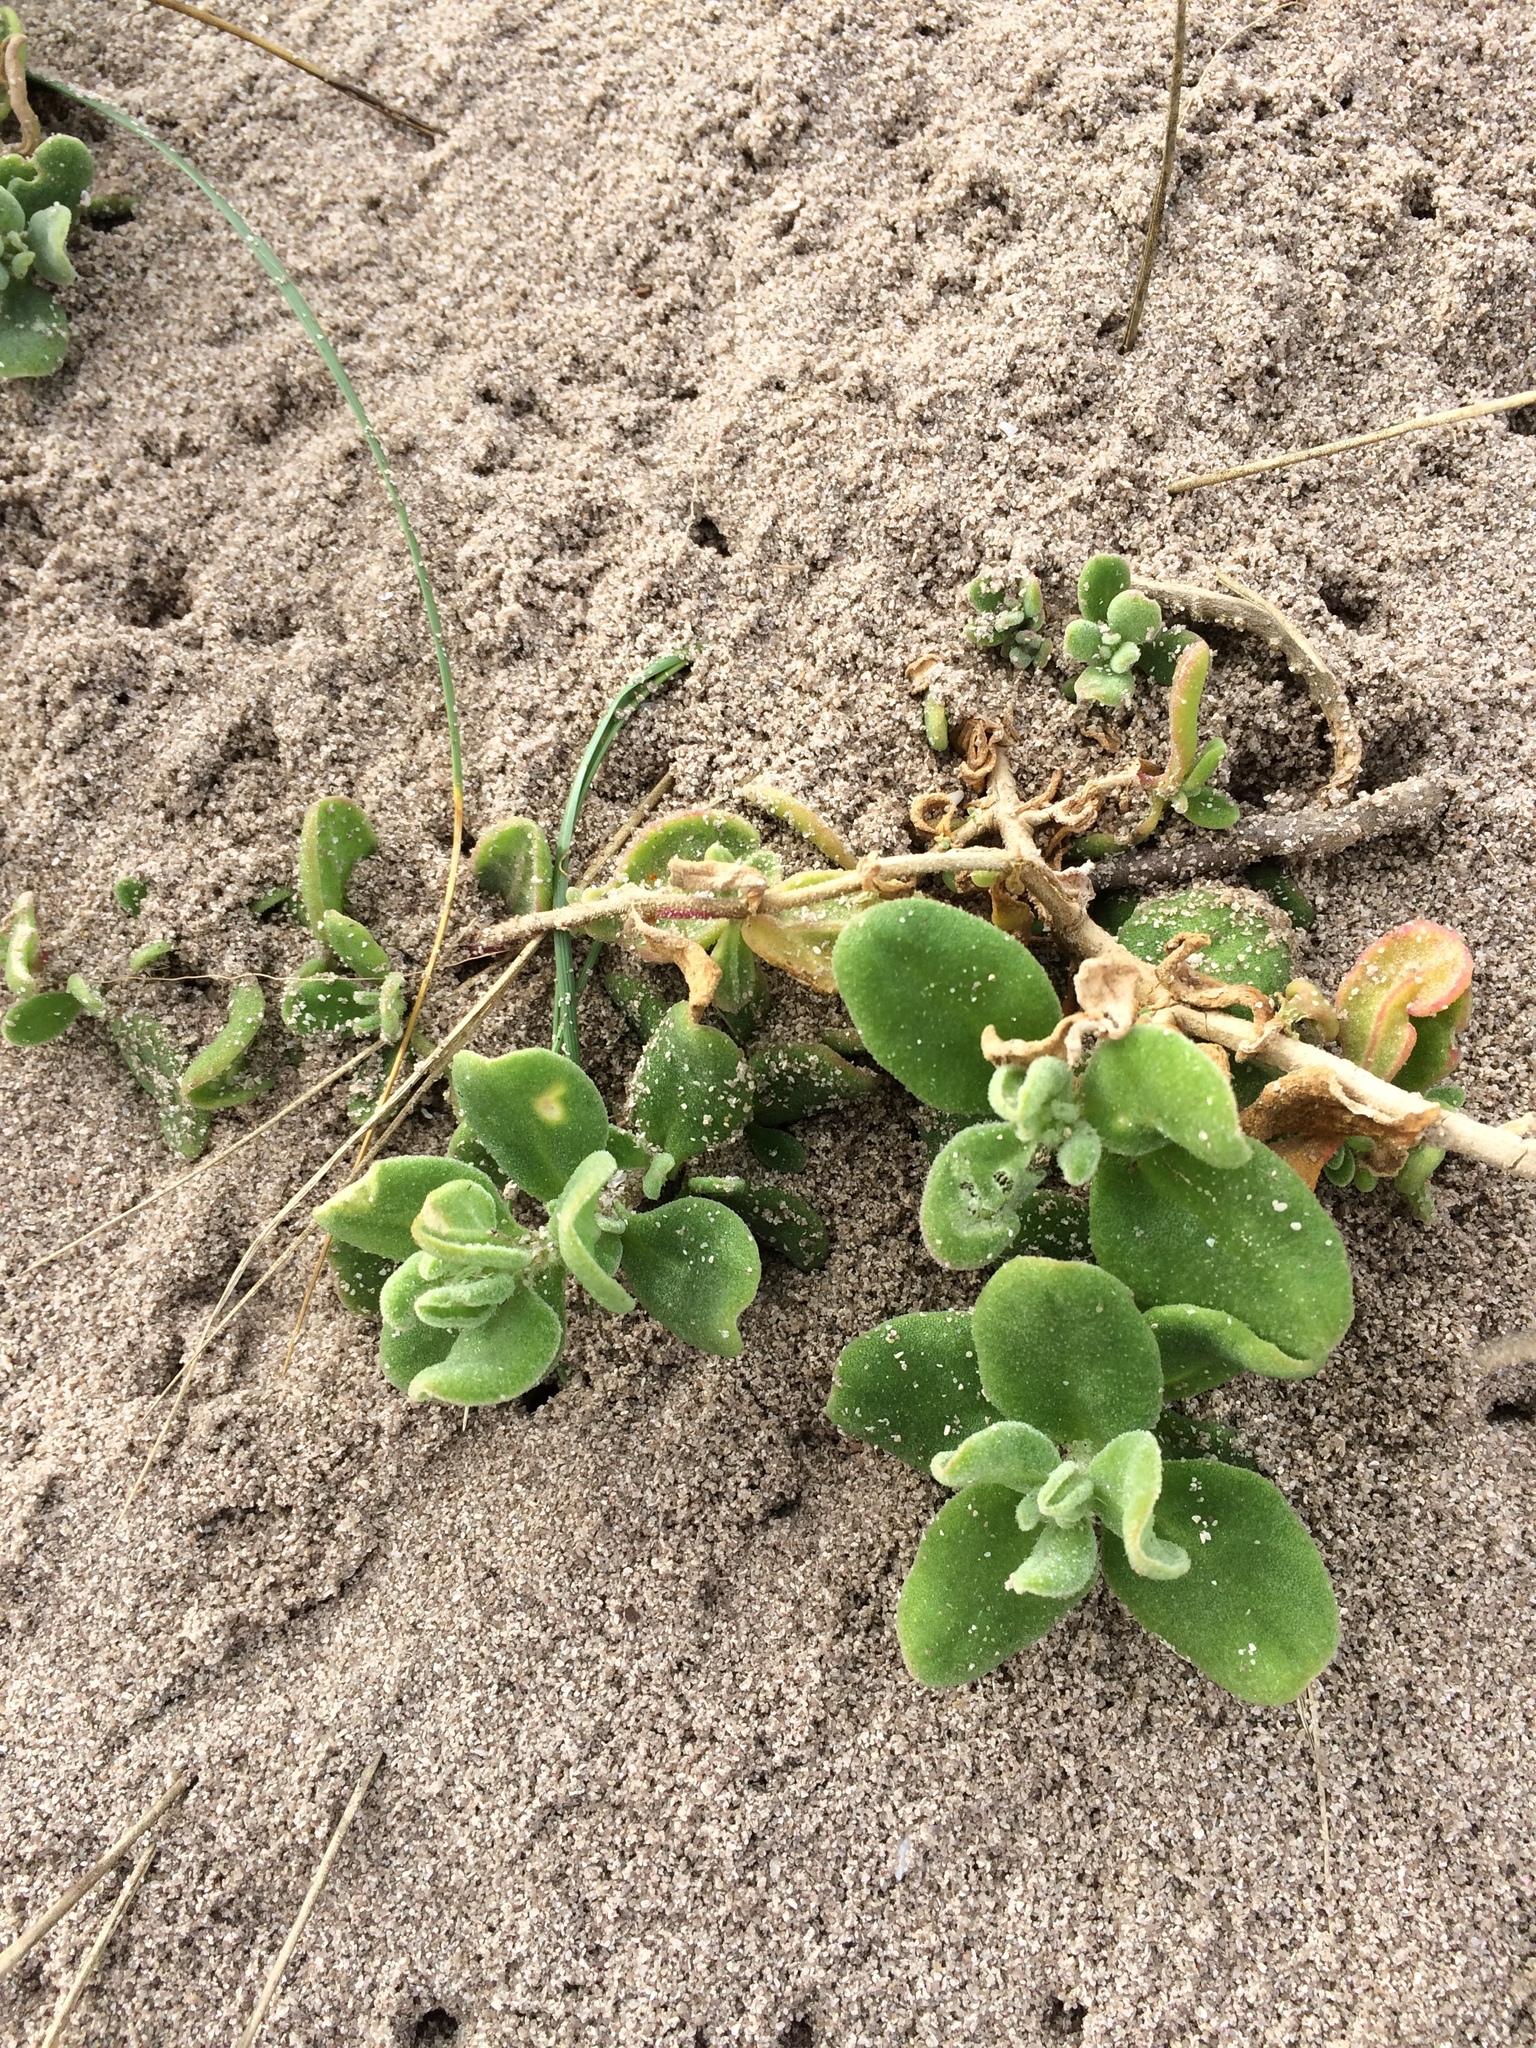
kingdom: Plantae
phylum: Tracheophyta
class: Magnoliopsida
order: Caryophyllales
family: Aizoaceae
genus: Tetragonia
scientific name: Tetragonia decumbens
